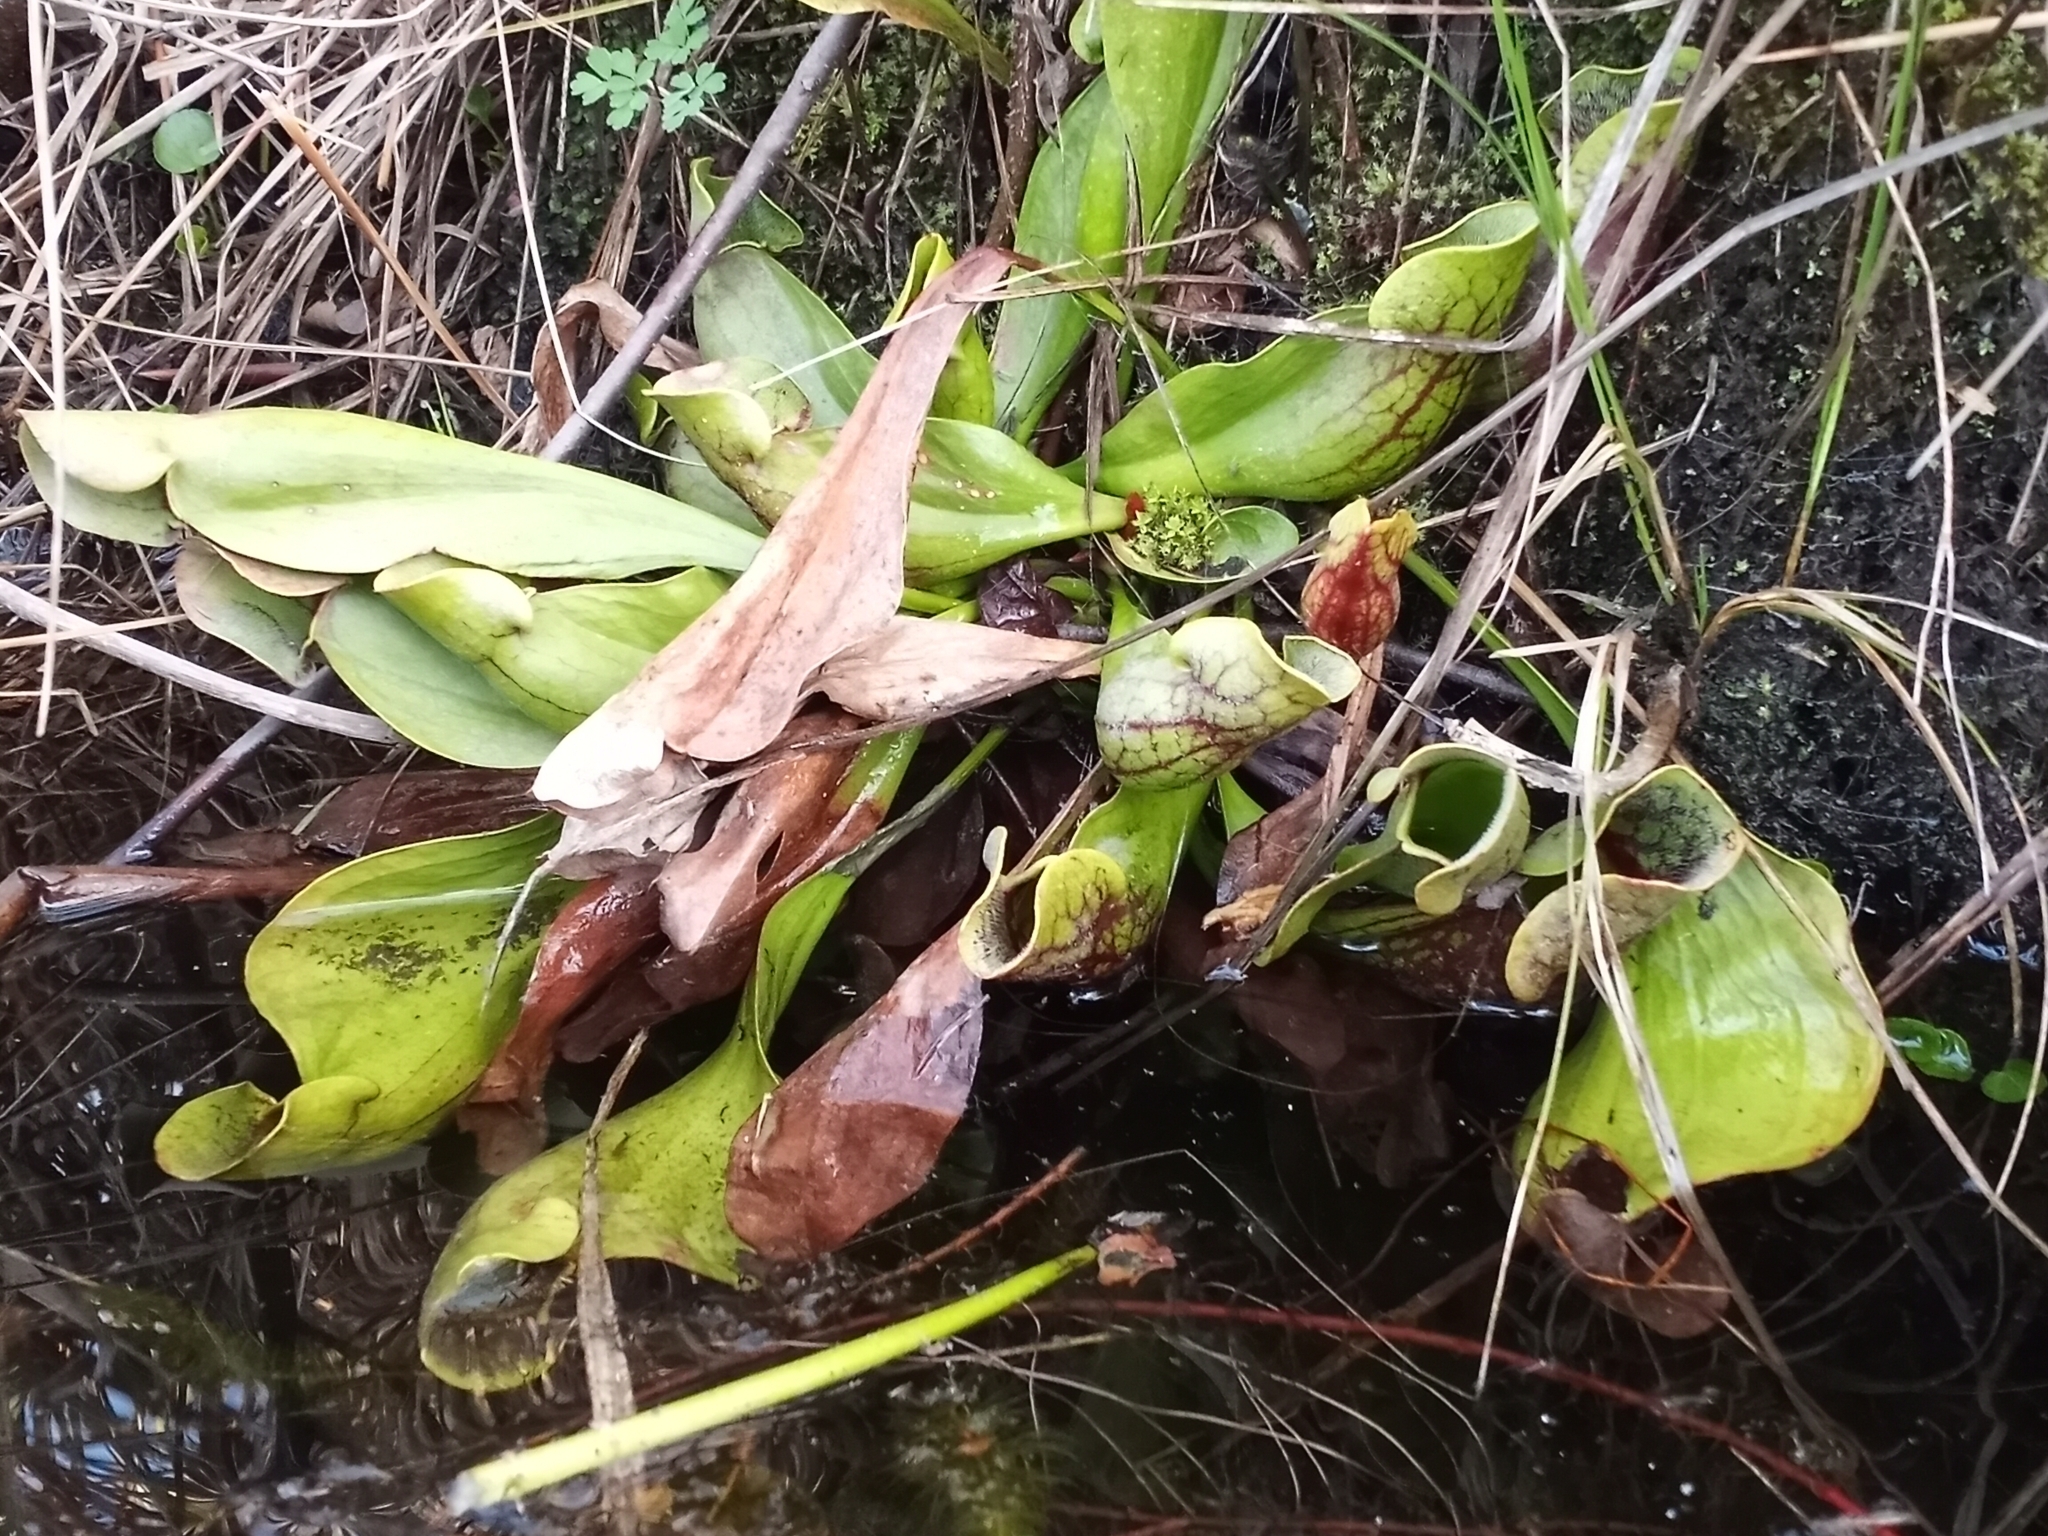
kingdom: Plantae
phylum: Tracheophyta
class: Magnoliopsida
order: Ericales
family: Sarraceniaceae
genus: Sarracenia
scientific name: Sarracenia purpurea
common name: Pitcherplant
